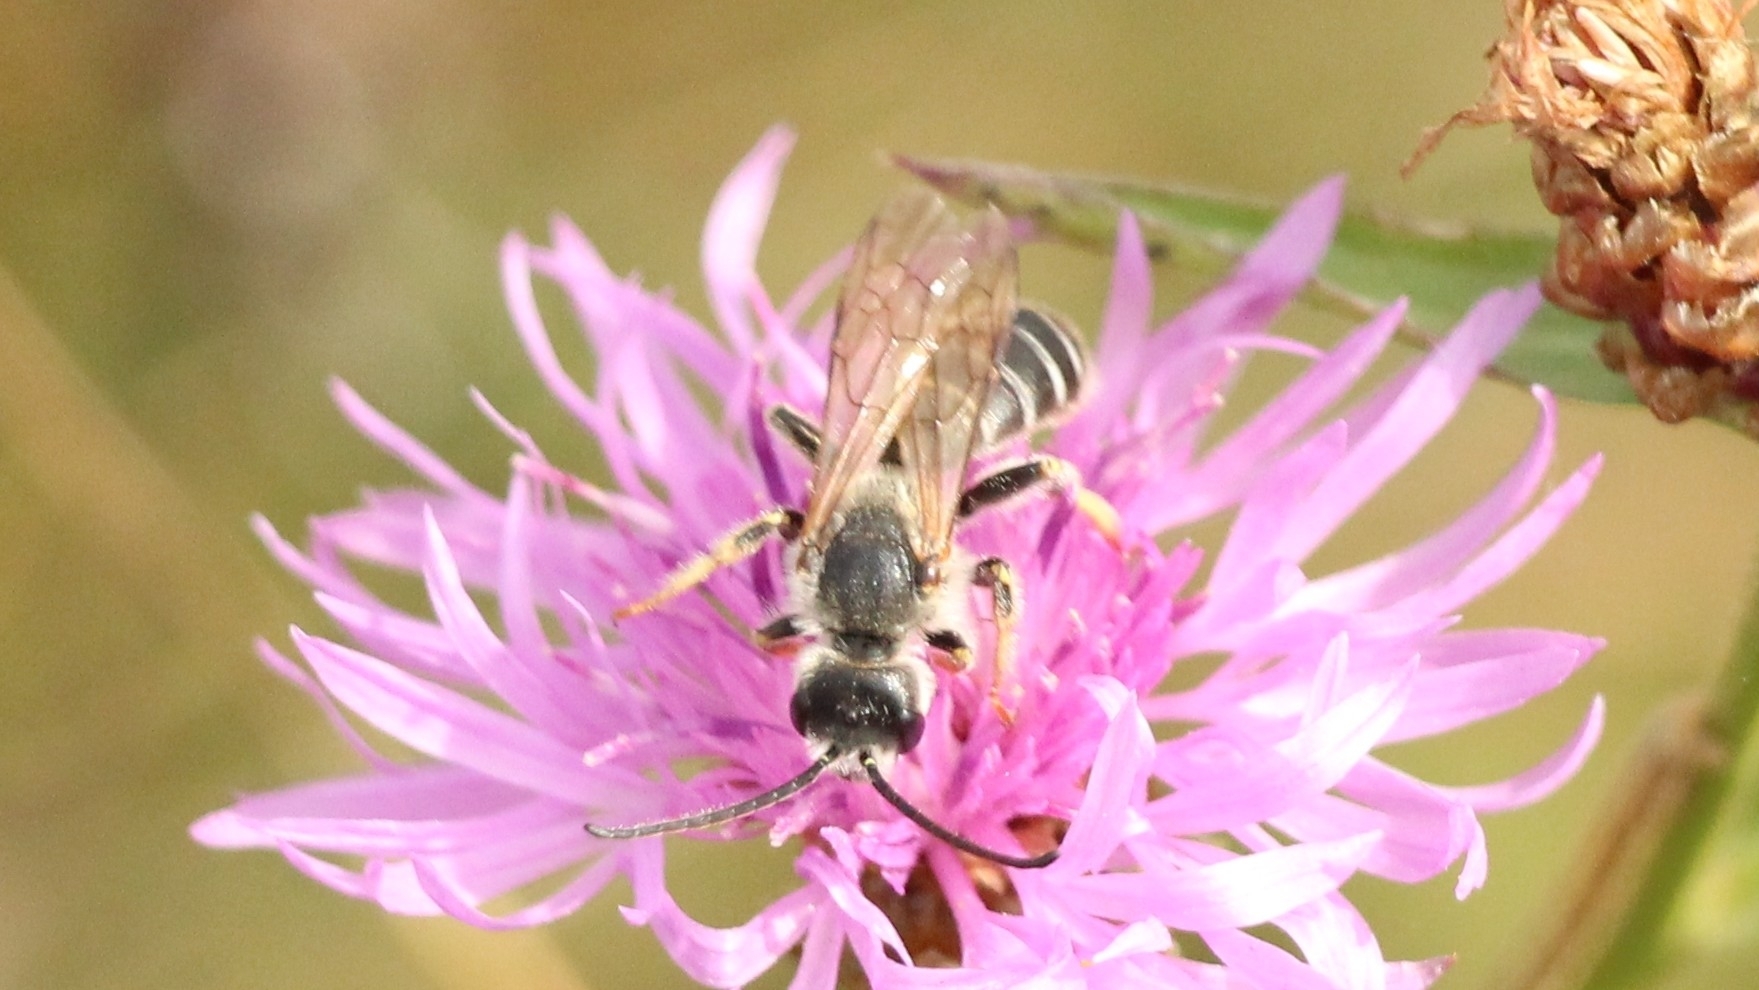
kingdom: Animalia
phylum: Arthropoda
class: Insecta
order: Hymenoptera
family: Halictidae
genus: Halictus
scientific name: Halictus quadricinctus
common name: Giant furrow bee
